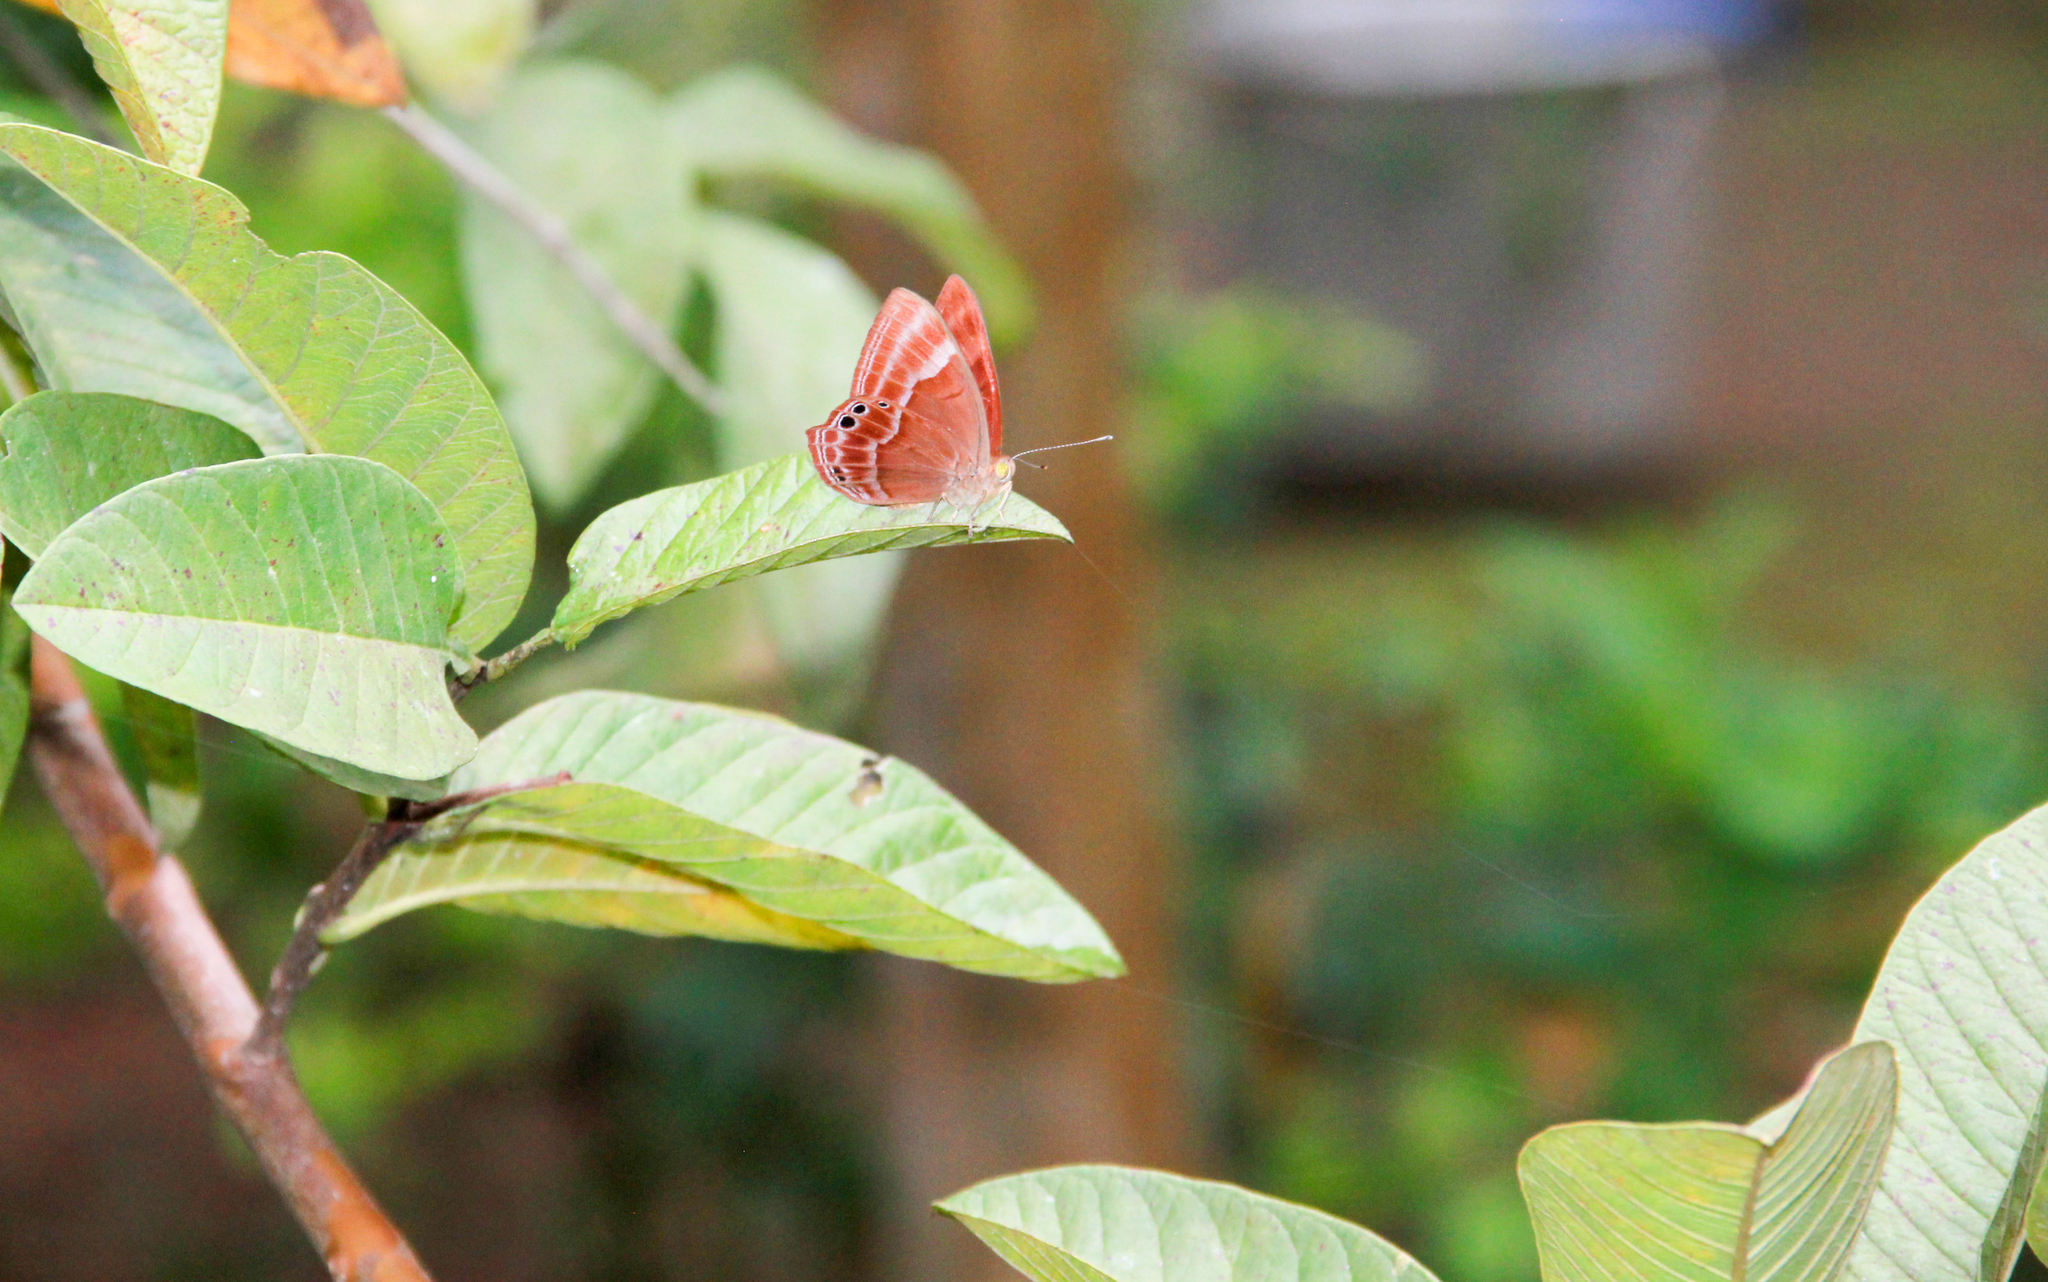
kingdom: Animalia
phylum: Arthropoda
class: Insecta
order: Lepidoptera
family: Lycaenidae
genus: Abisara
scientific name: Abisara echeria
